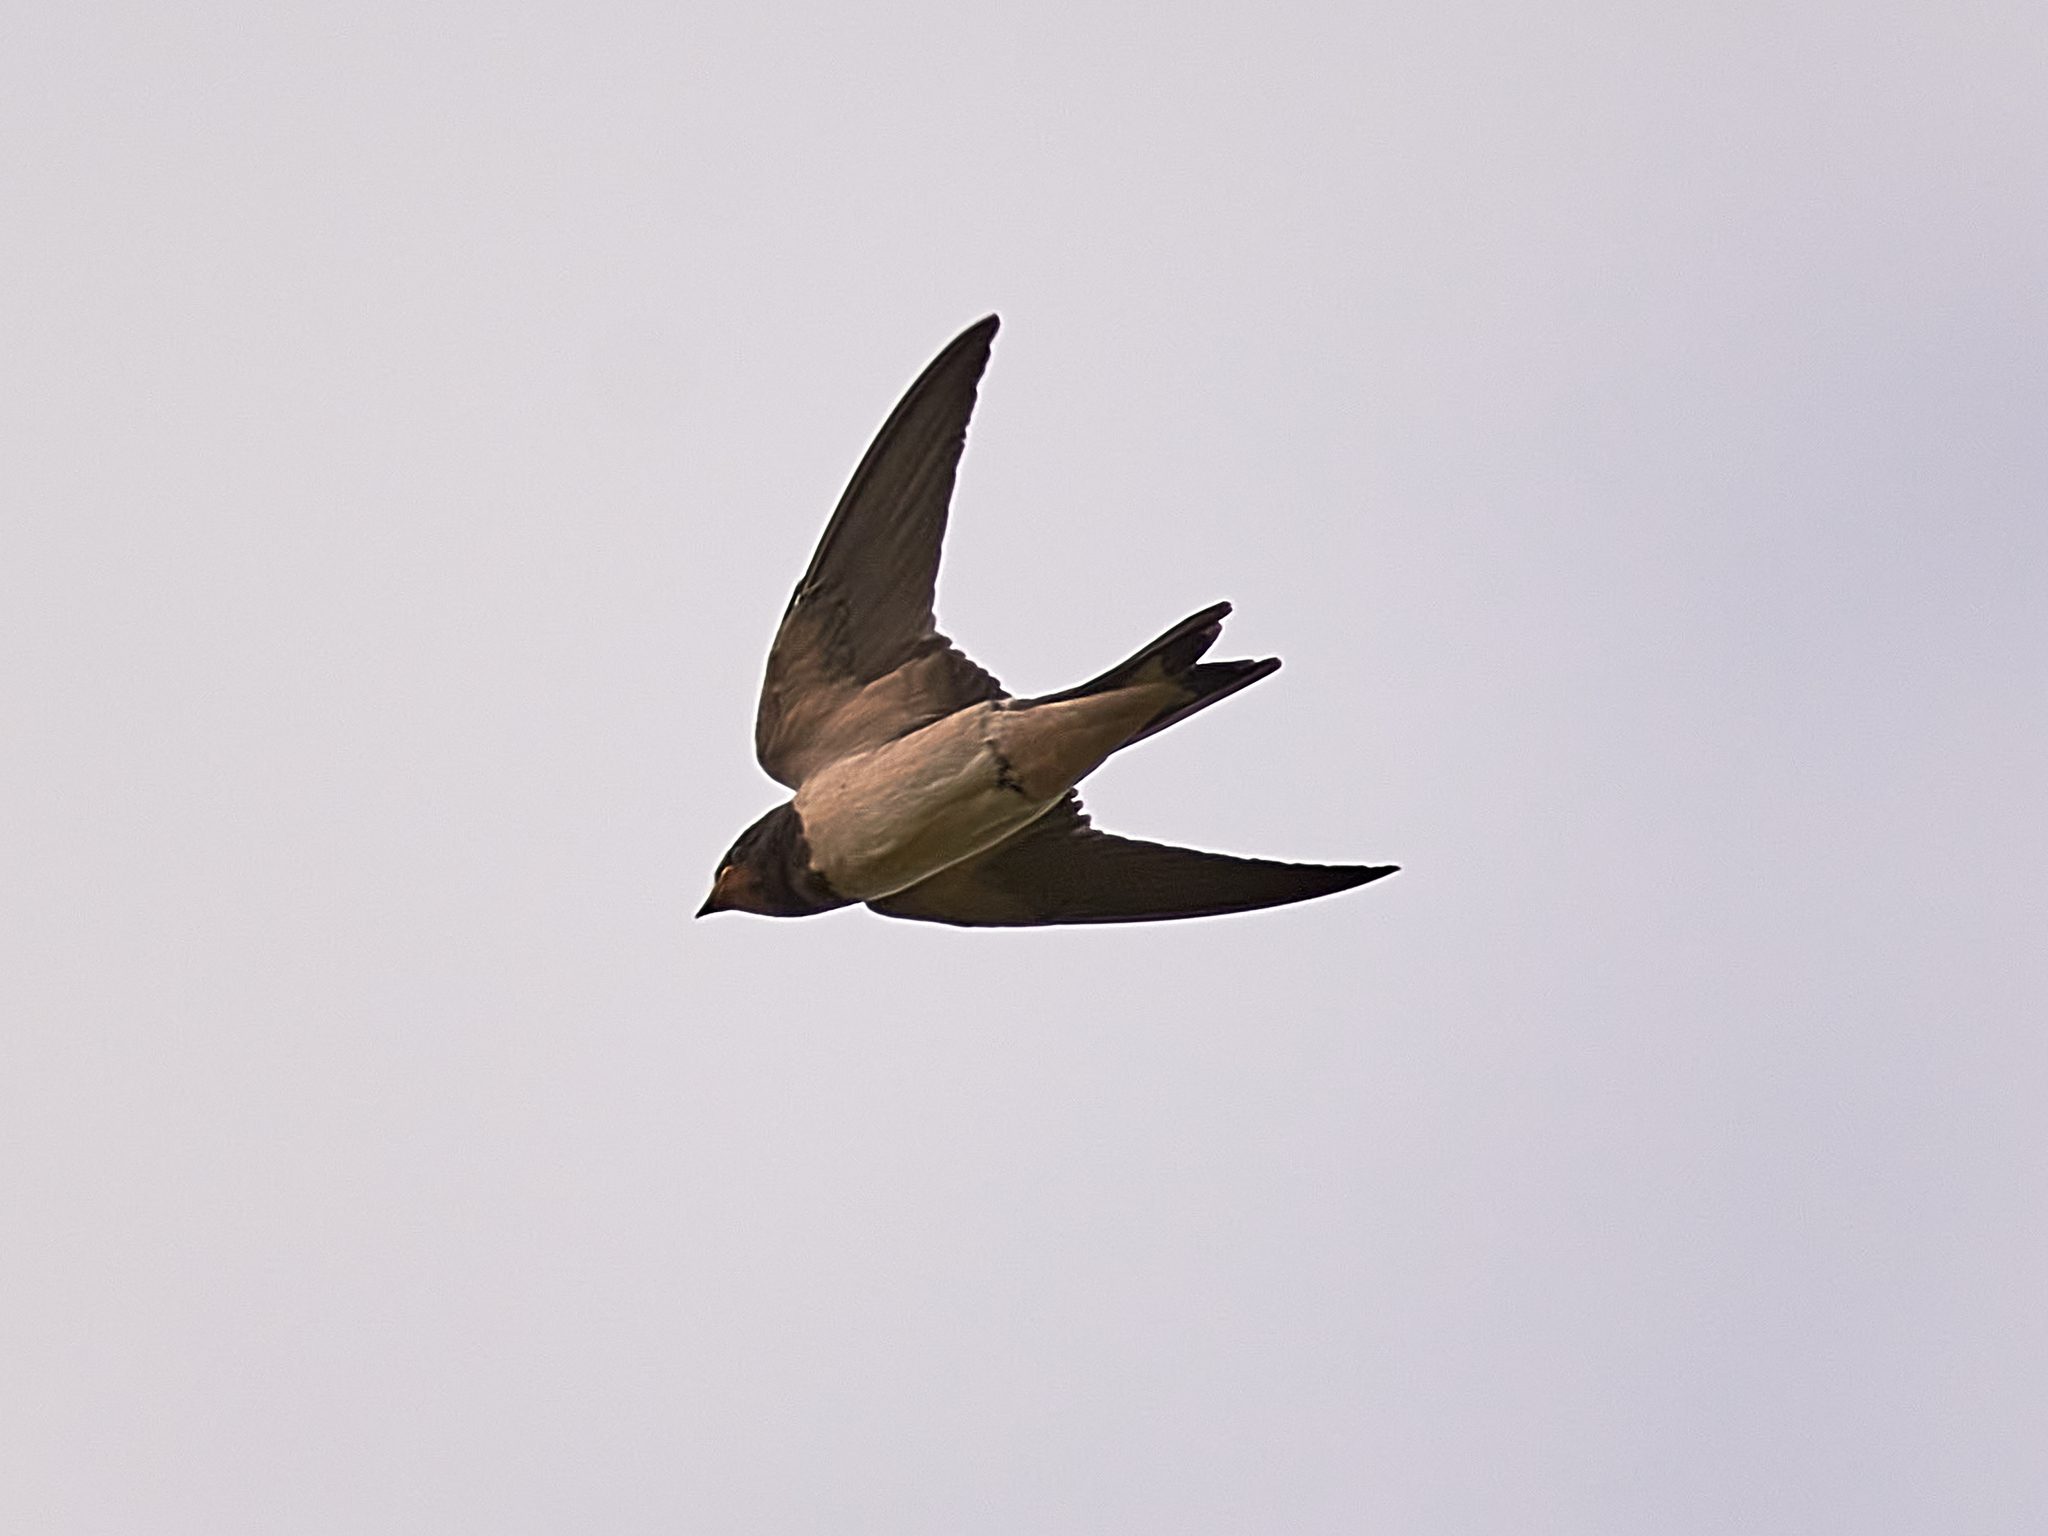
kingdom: Animalia
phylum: Chordata
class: Aves
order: Passeriformes
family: Hirundinidae
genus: Hirundo
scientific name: Hirundo rustica
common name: Barn swallow
